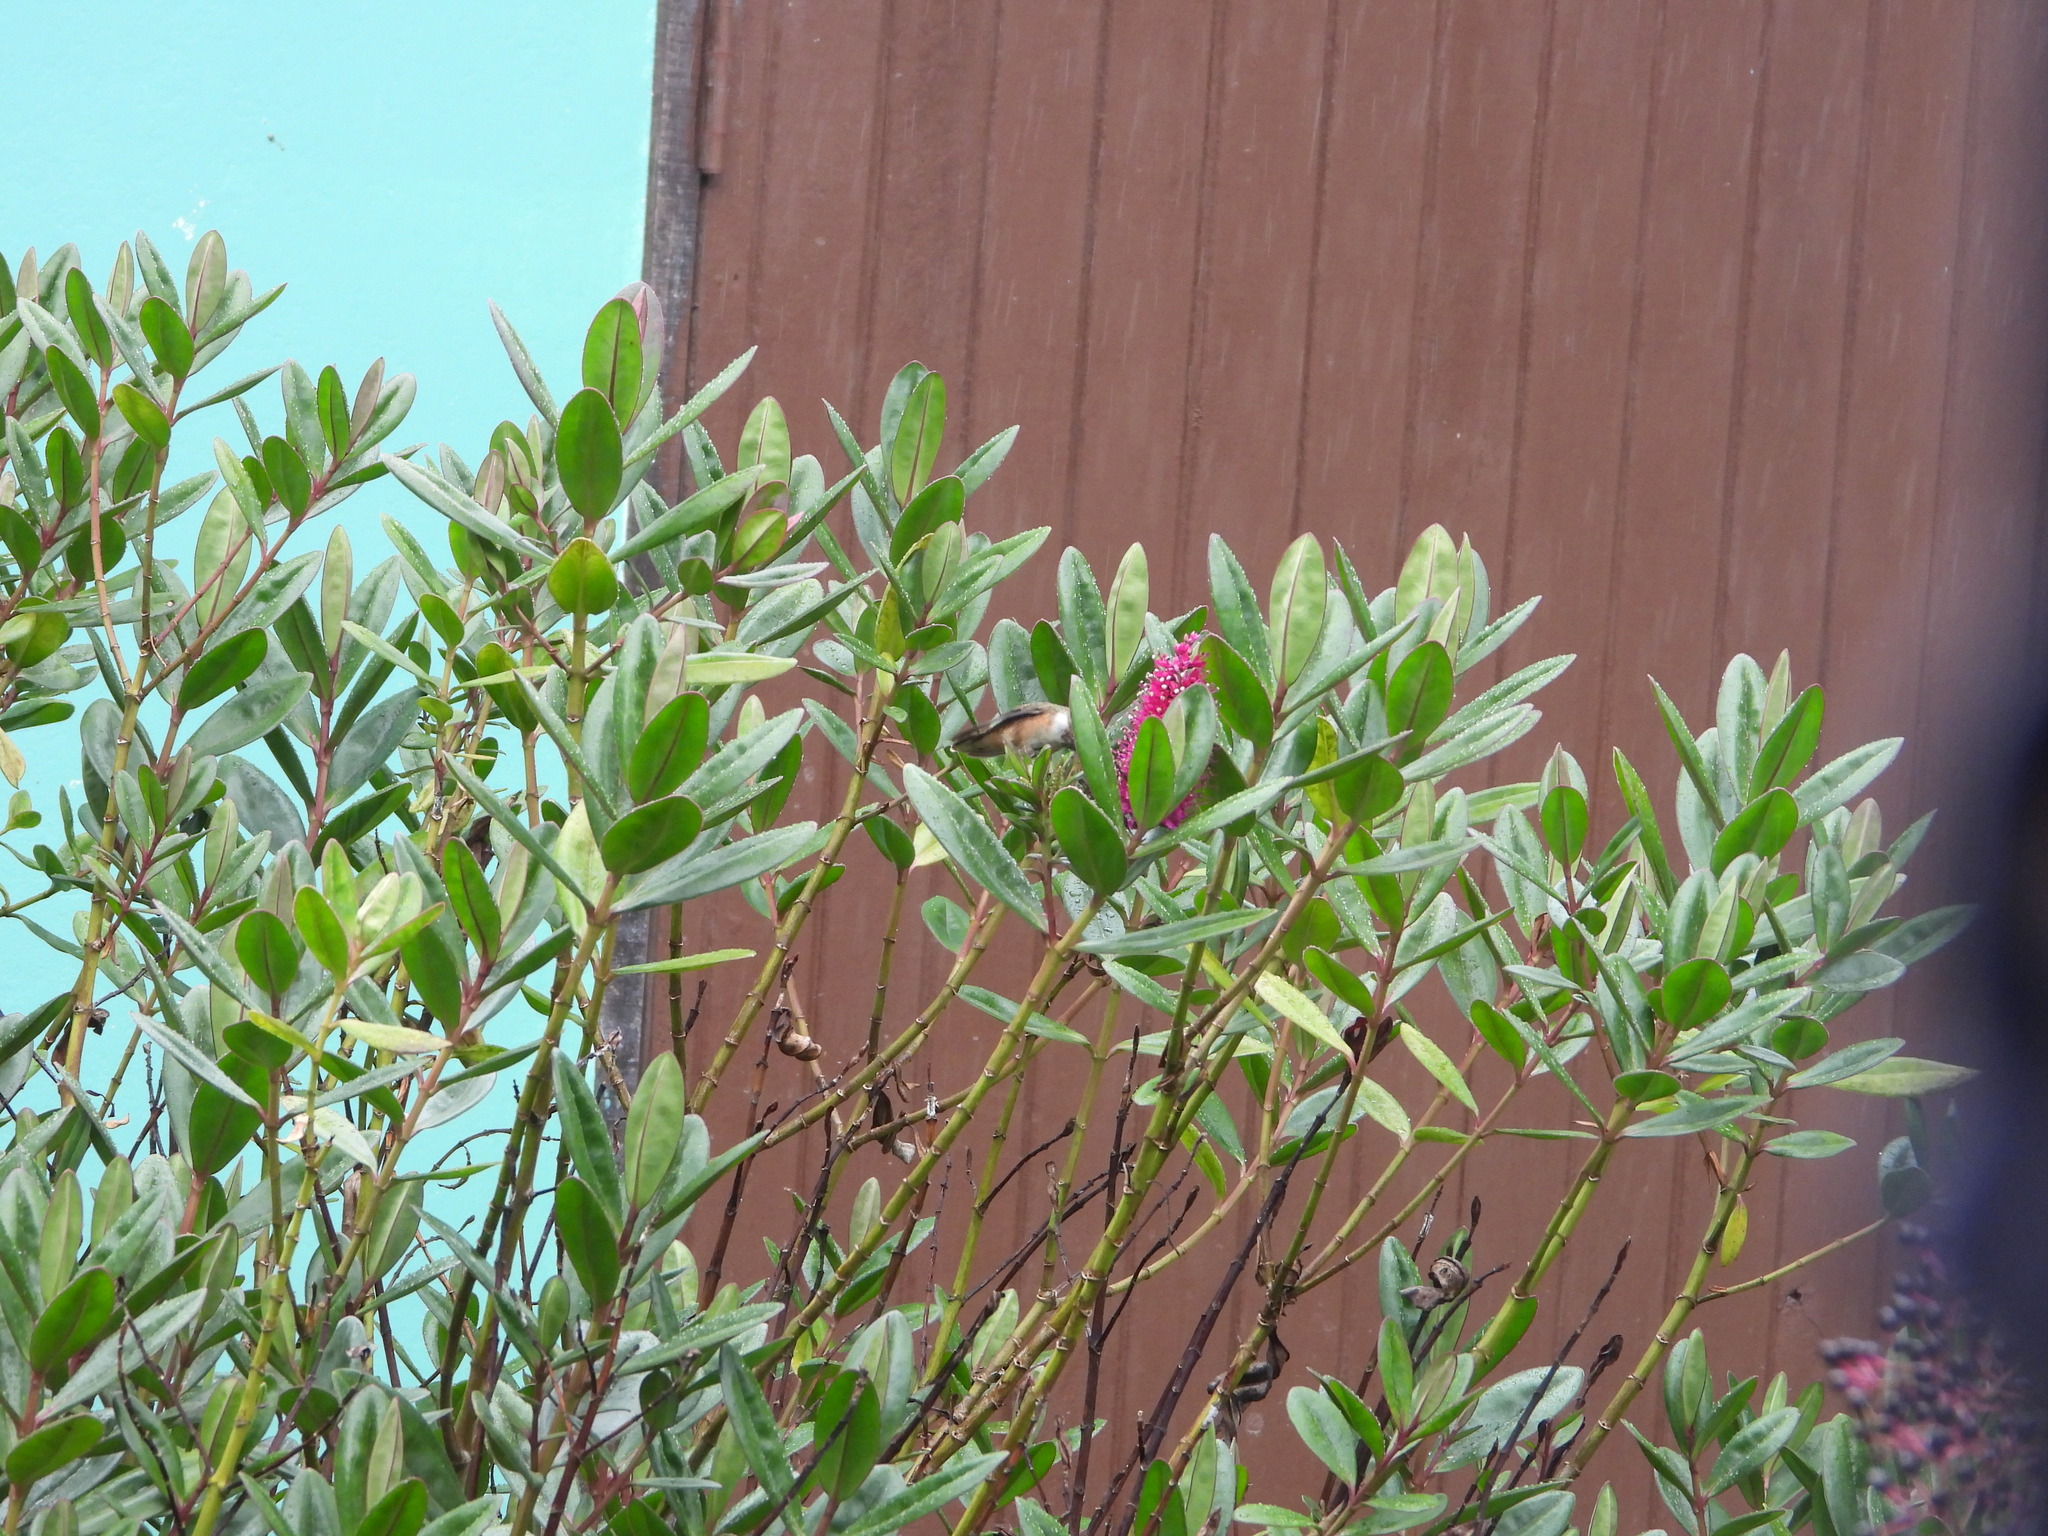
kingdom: Animalia
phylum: Chordata
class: Aves
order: Apodiformes
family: Trochilidae
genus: Selasphorus
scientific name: Selasphorus flammula
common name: Volcano hummingbird
